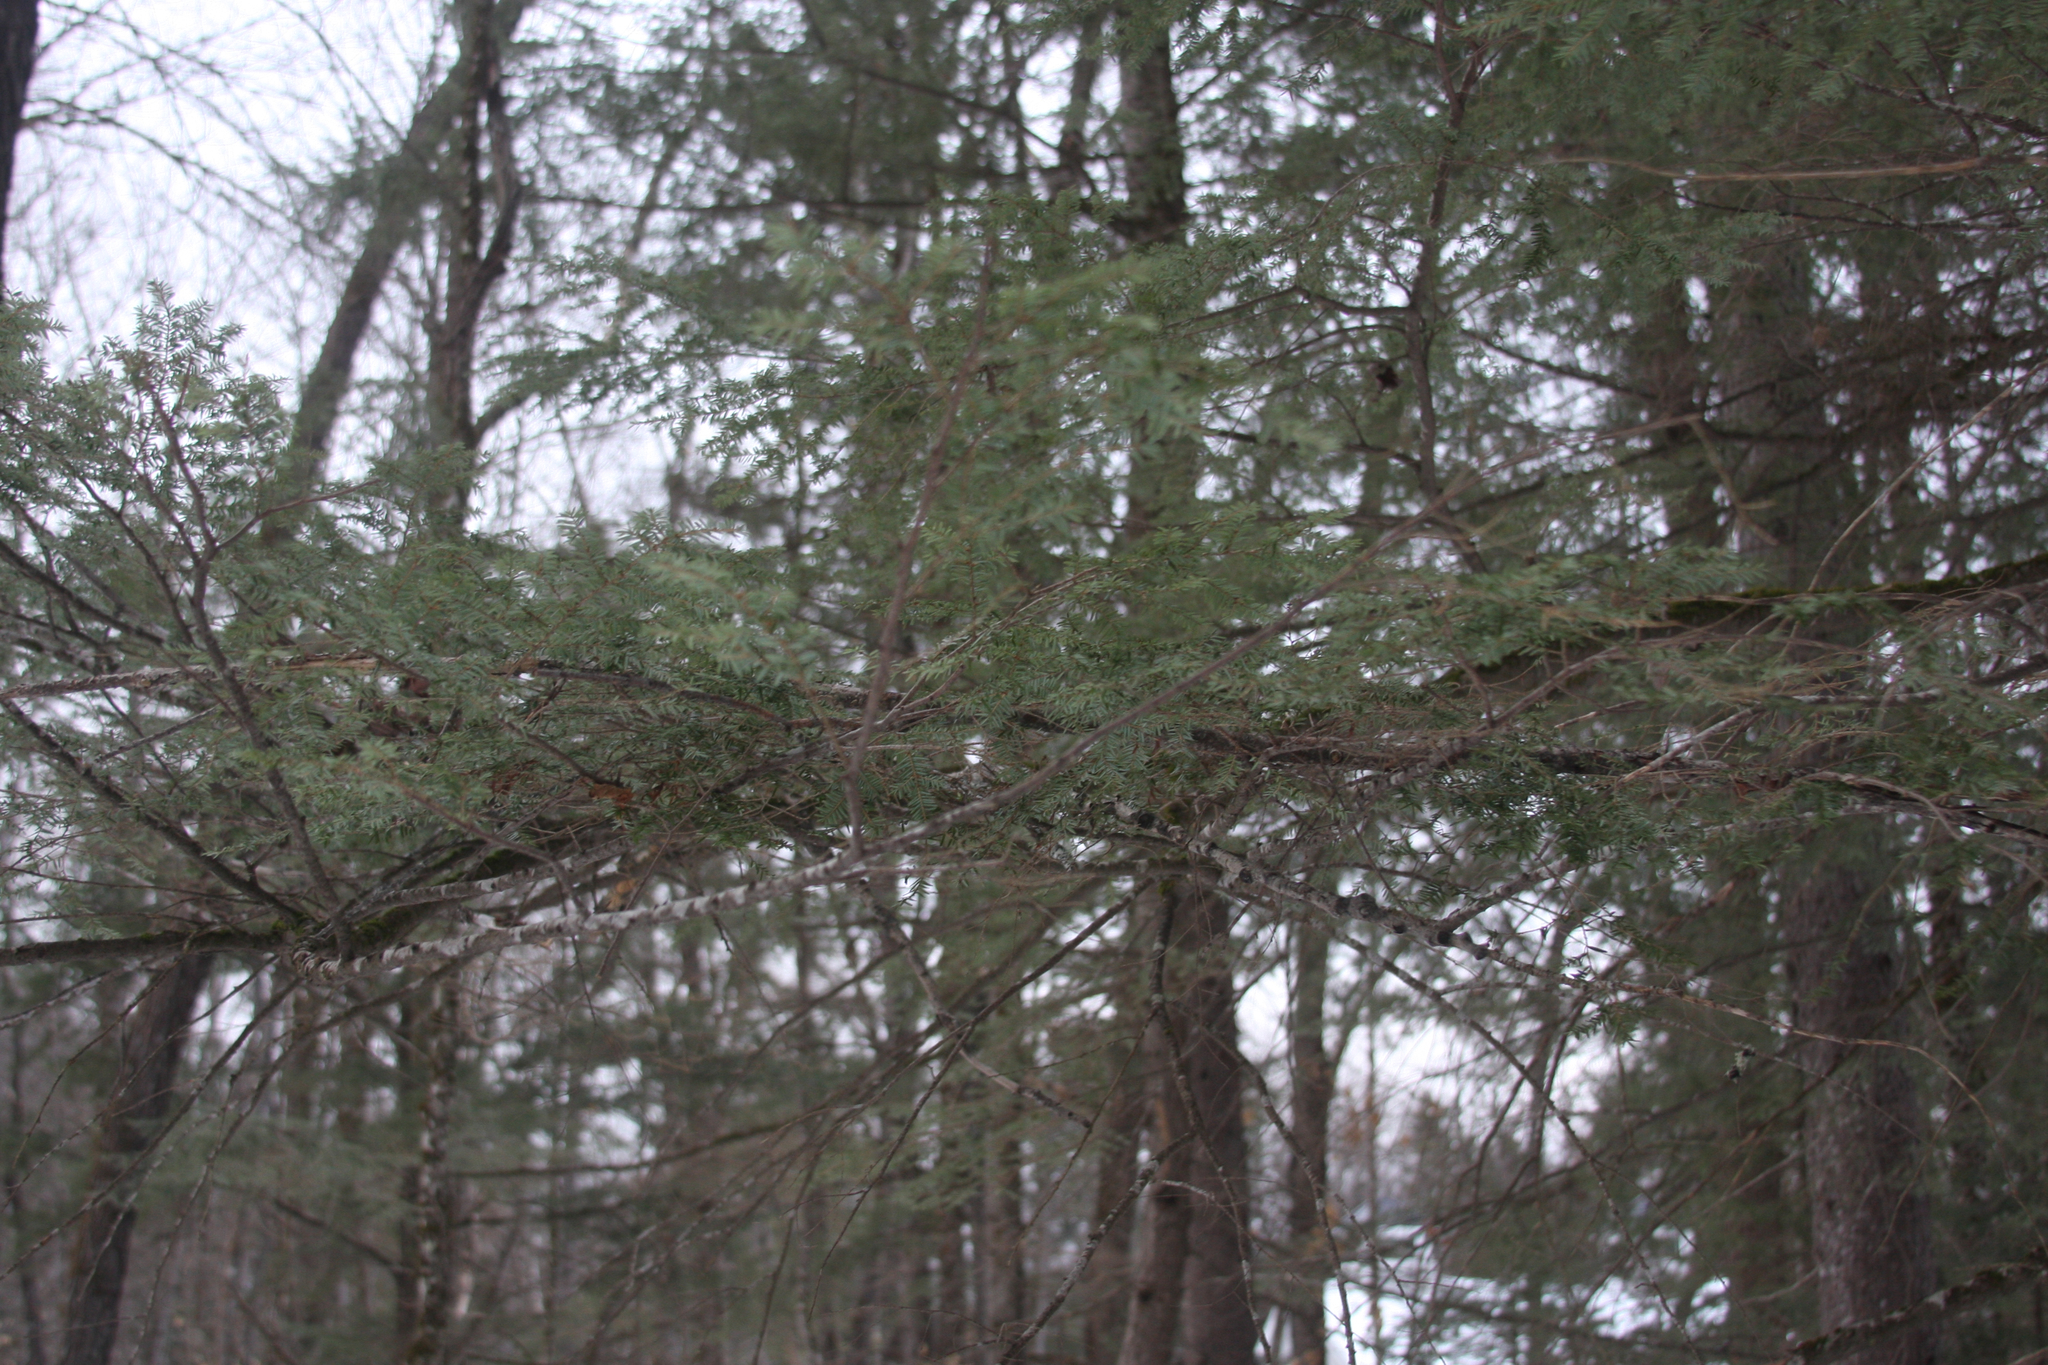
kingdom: Plantae
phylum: Tracheophyta
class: Pinopsida
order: Pinales
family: Pinaceae
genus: Tsuga
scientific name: Tsuga canadensis
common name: Eastern hemlock
